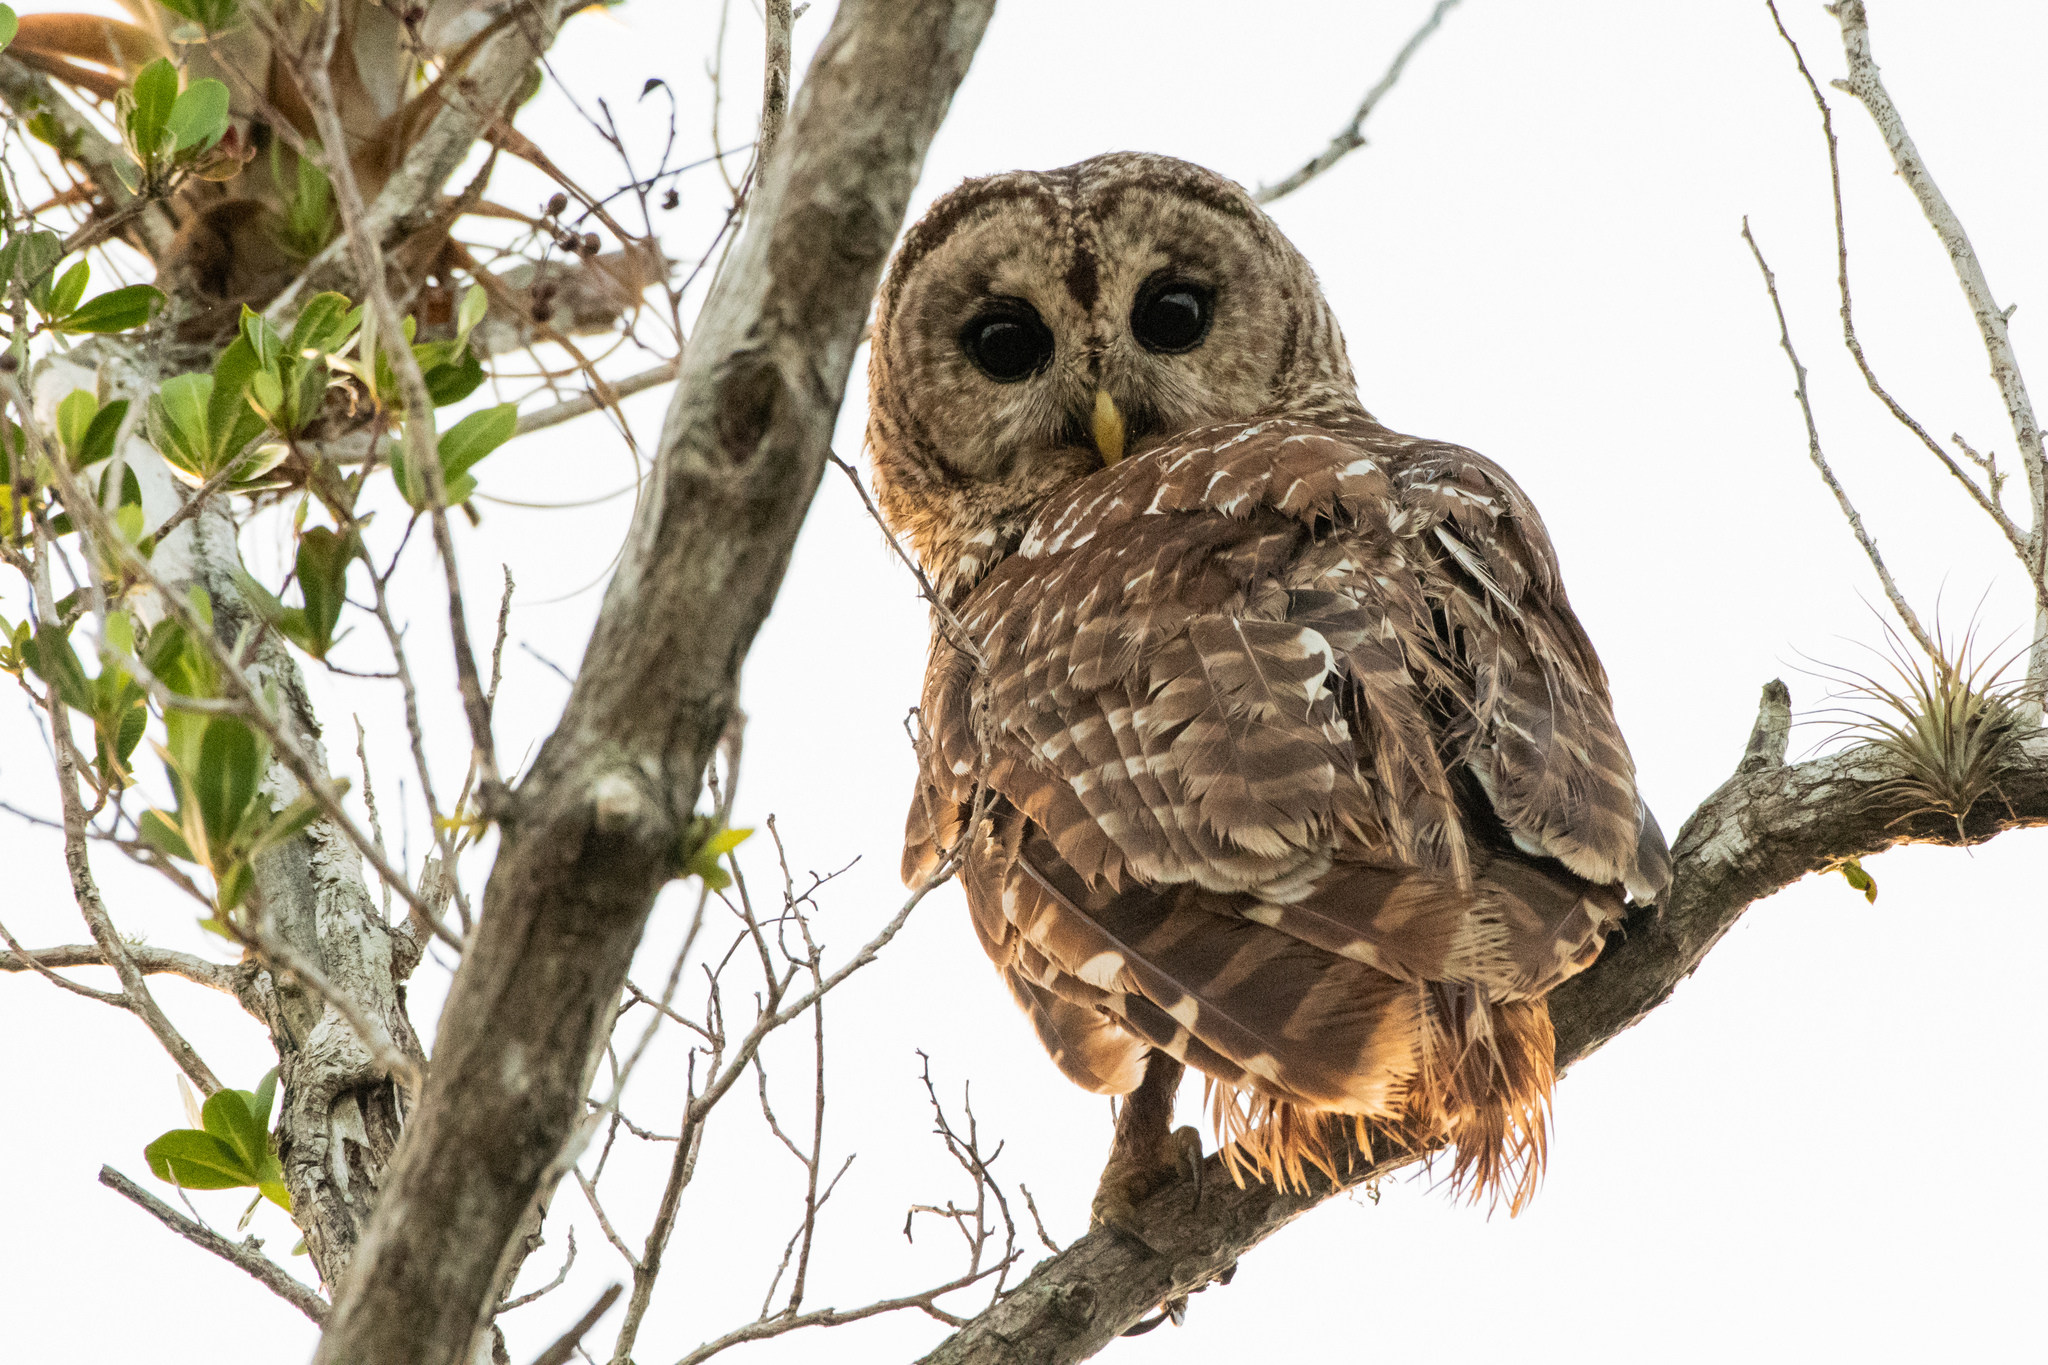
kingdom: Animalia
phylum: Chordata
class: Aves
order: Strigiformes
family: Strigidae
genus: Strix
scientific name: Strix varia
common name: Barred owl
